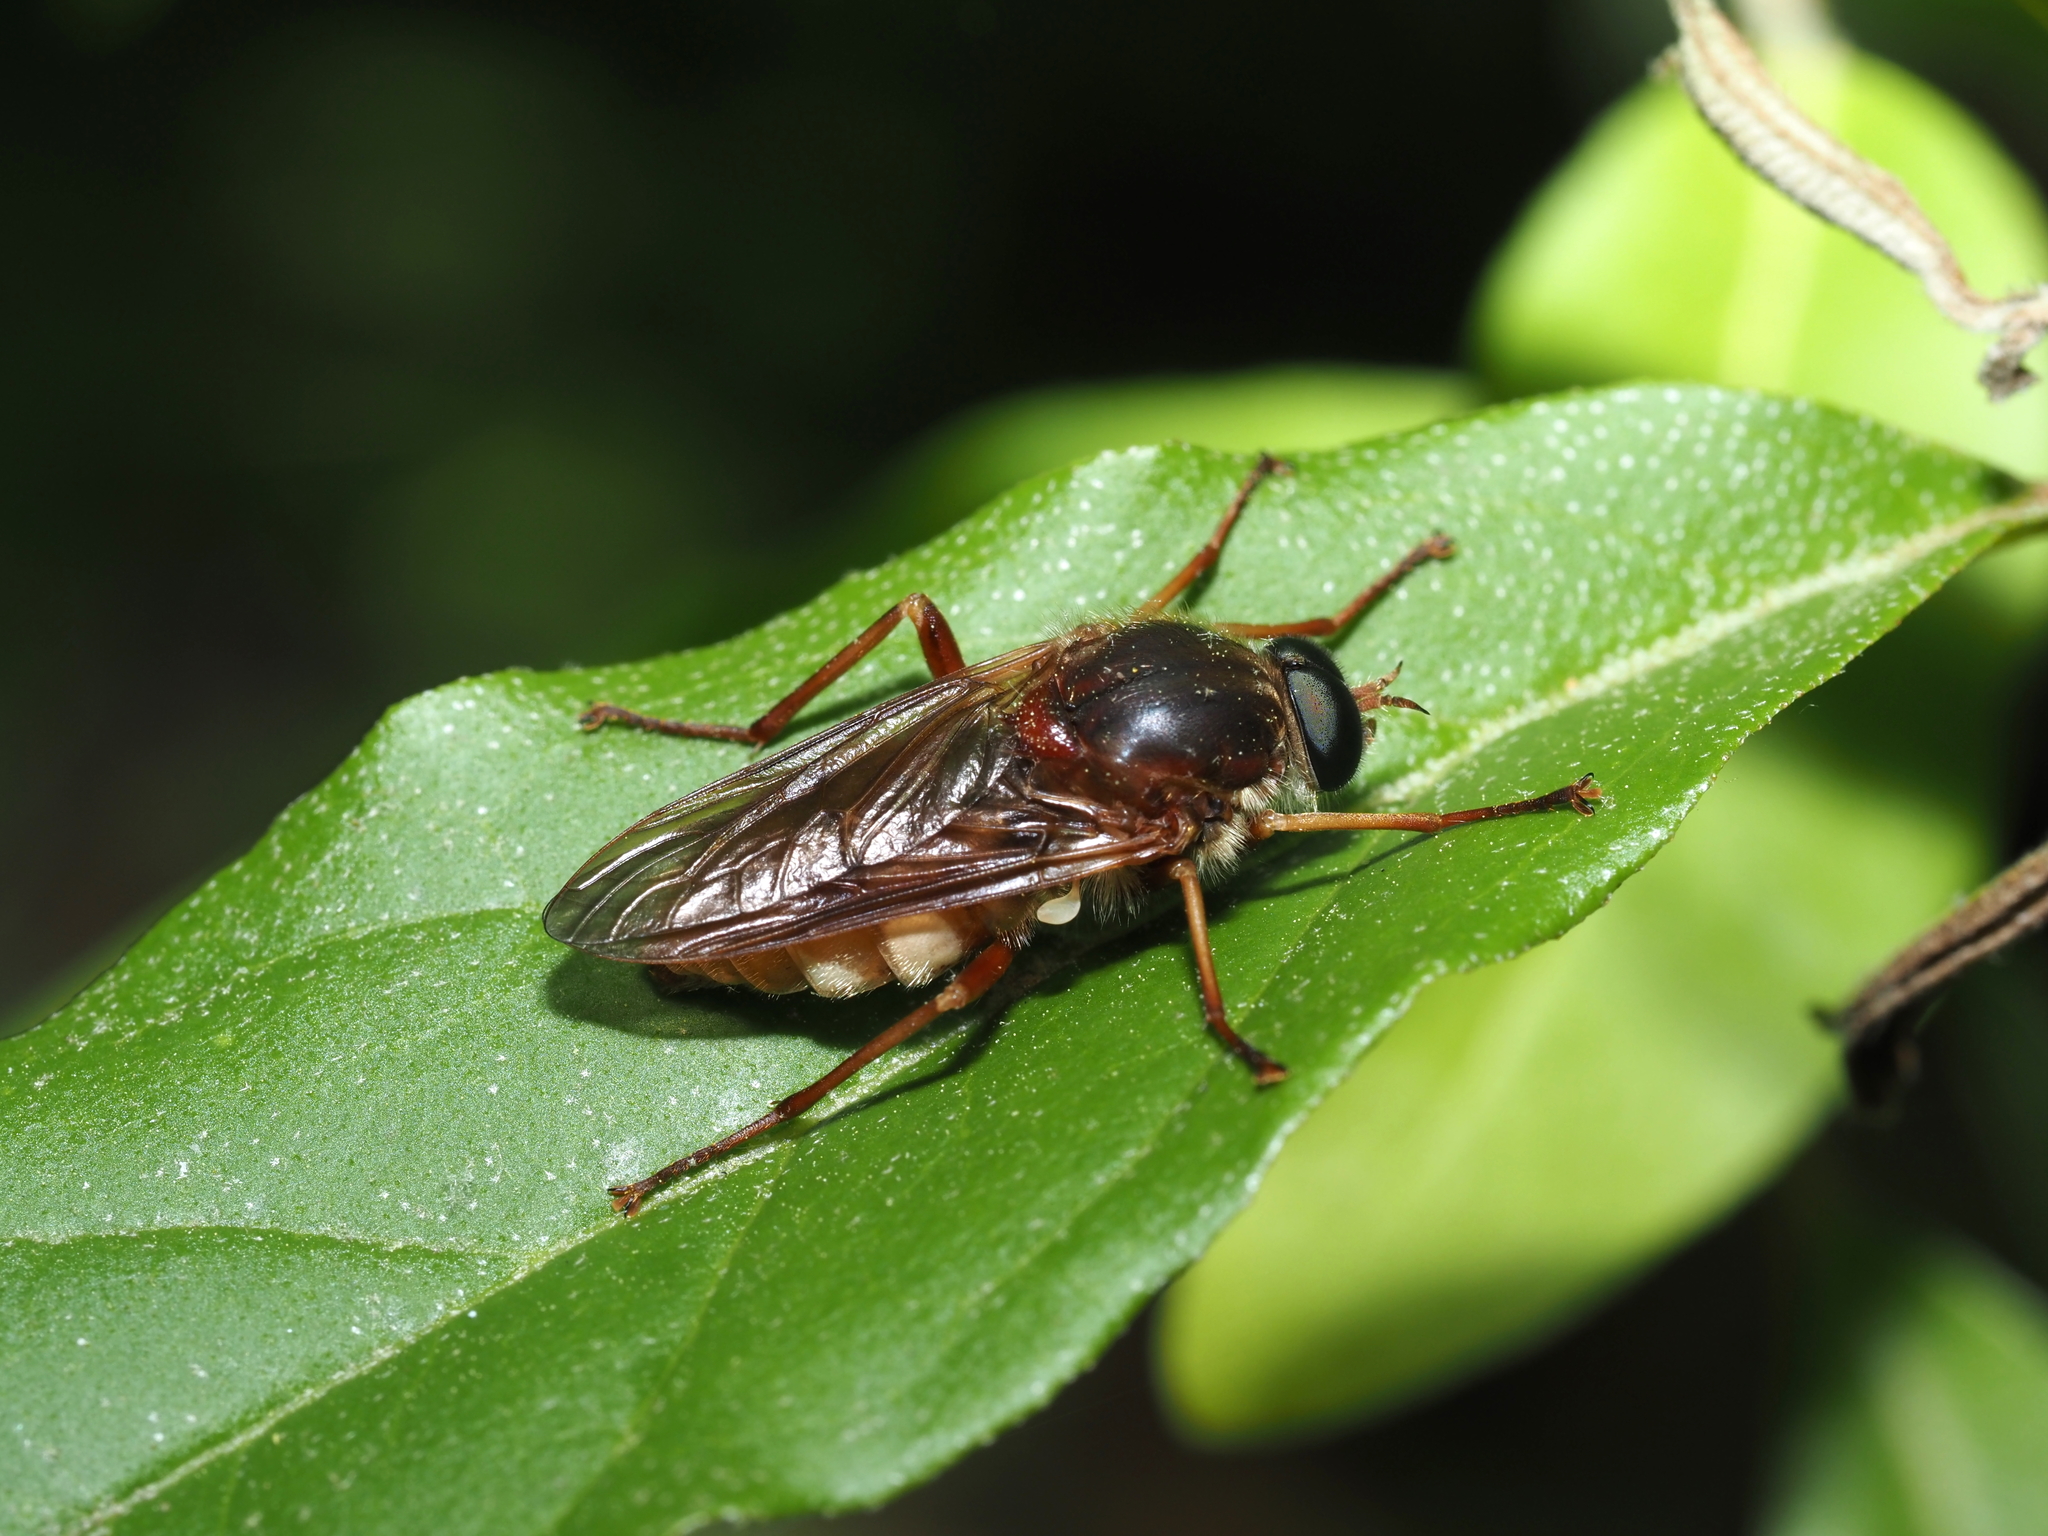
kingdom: Animalia
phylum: Arthropoda
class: Insecta
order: Diptera
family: Xylophagidae
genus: Coenomyia
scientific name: Coenomyia ferruginea
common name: Stink fly
